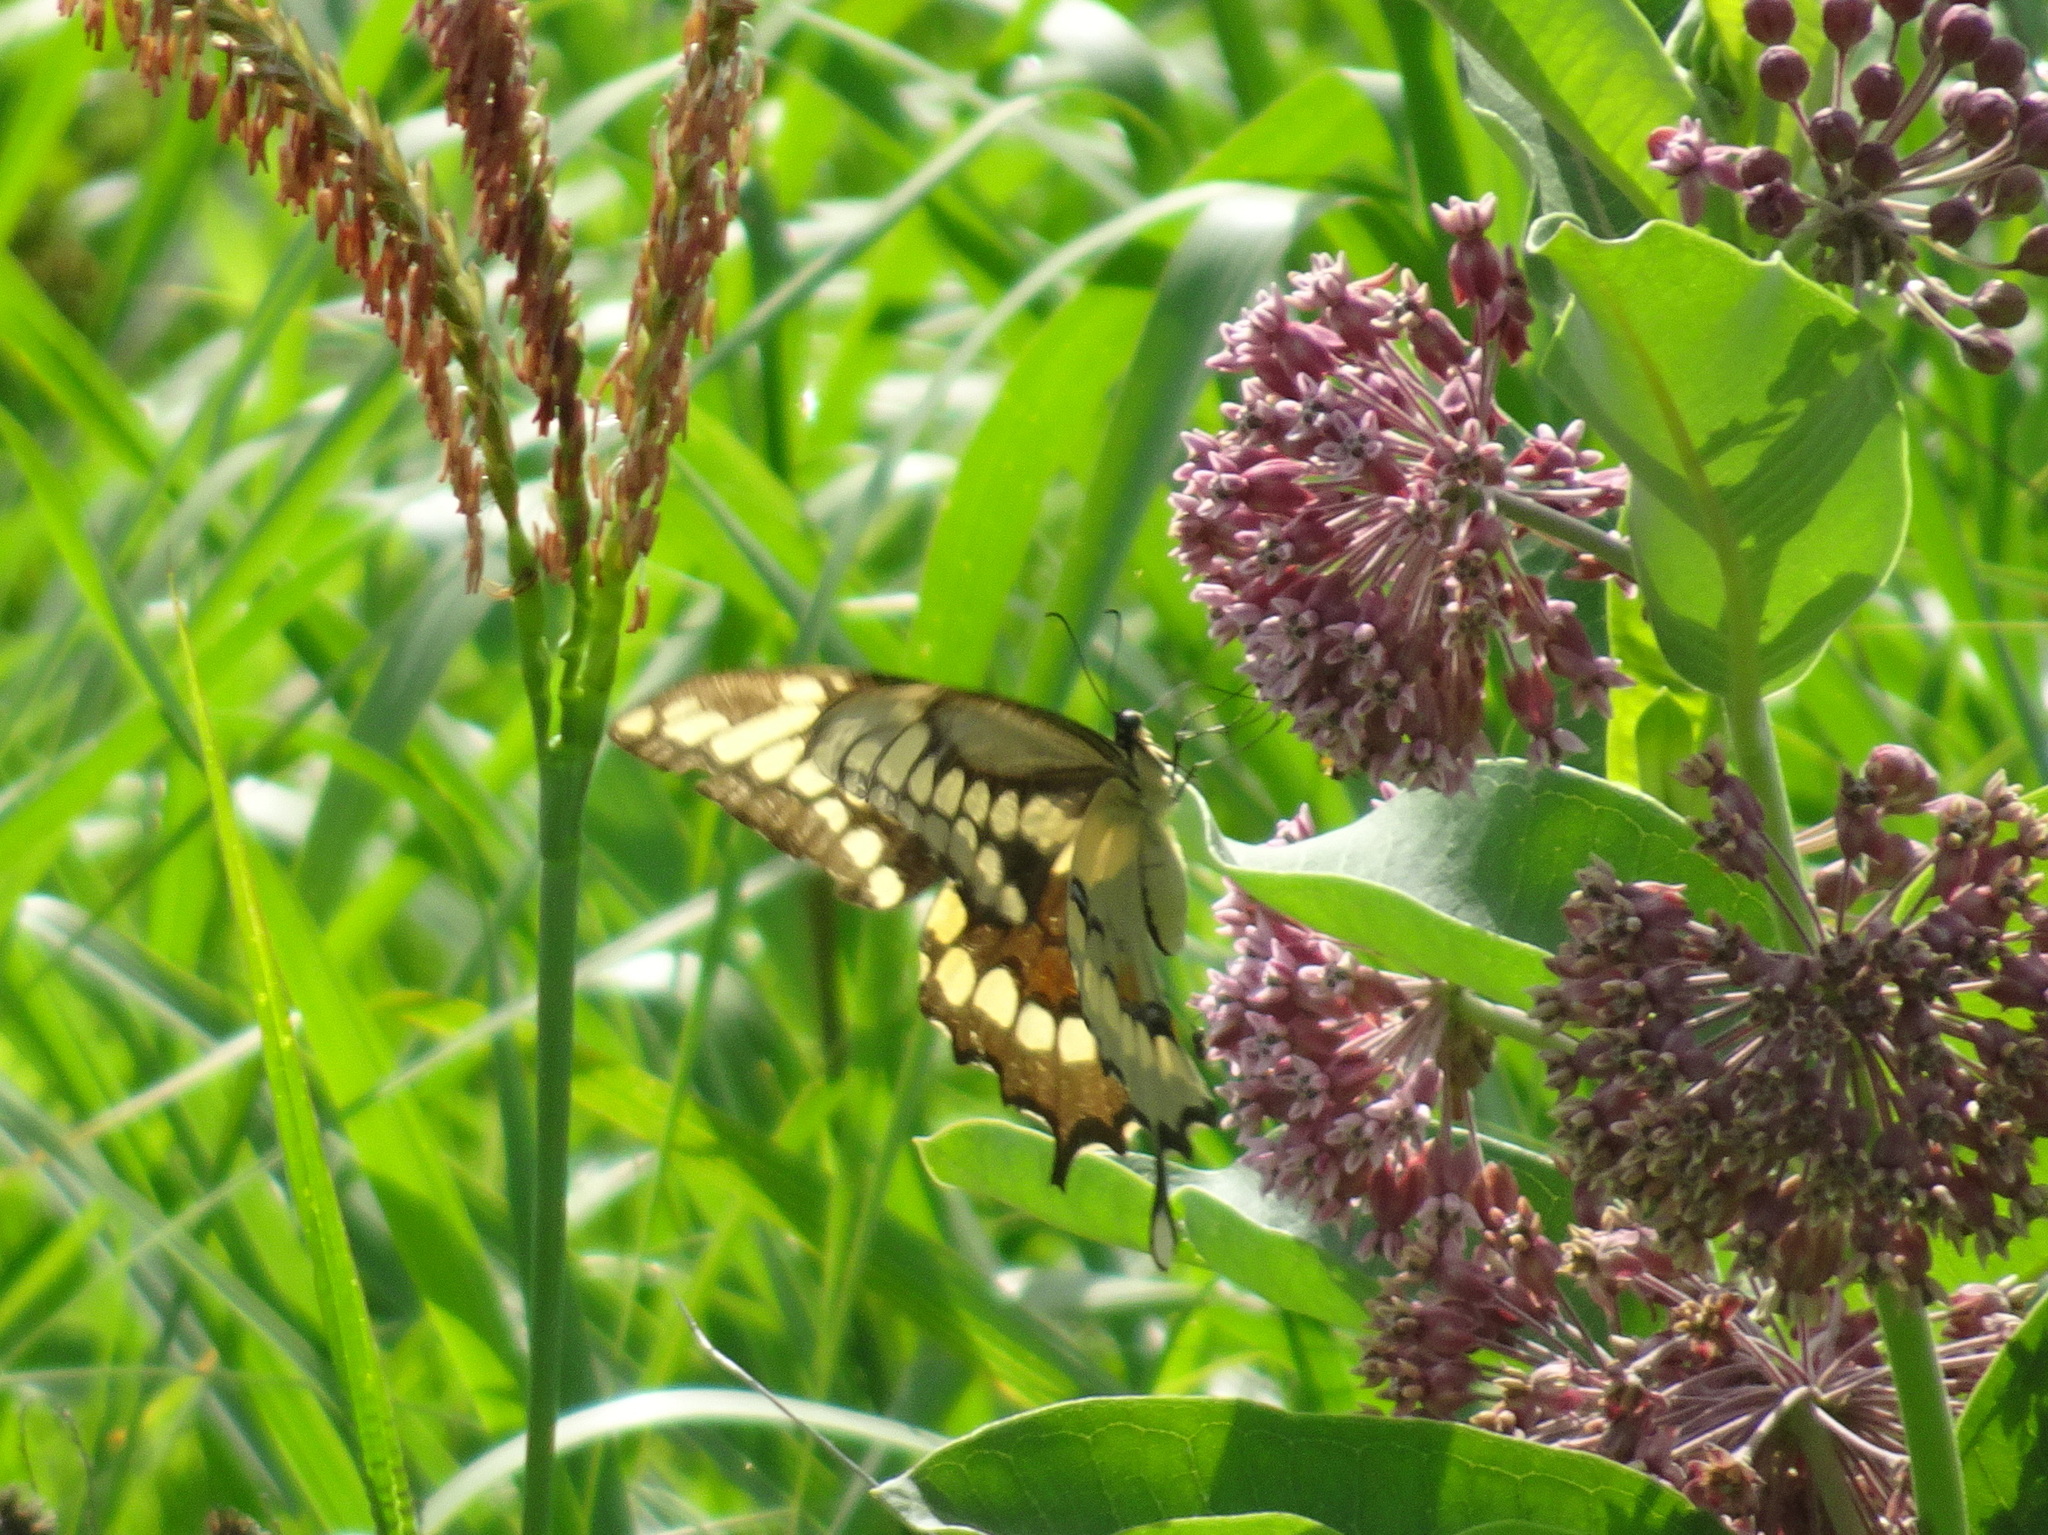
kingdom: Animalia
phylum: Arthropoda
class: Insecta
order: Lepidoptera
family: Papilionidae
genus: Papilio
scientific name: Papilio cresphontes
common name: Giant swallowtail
